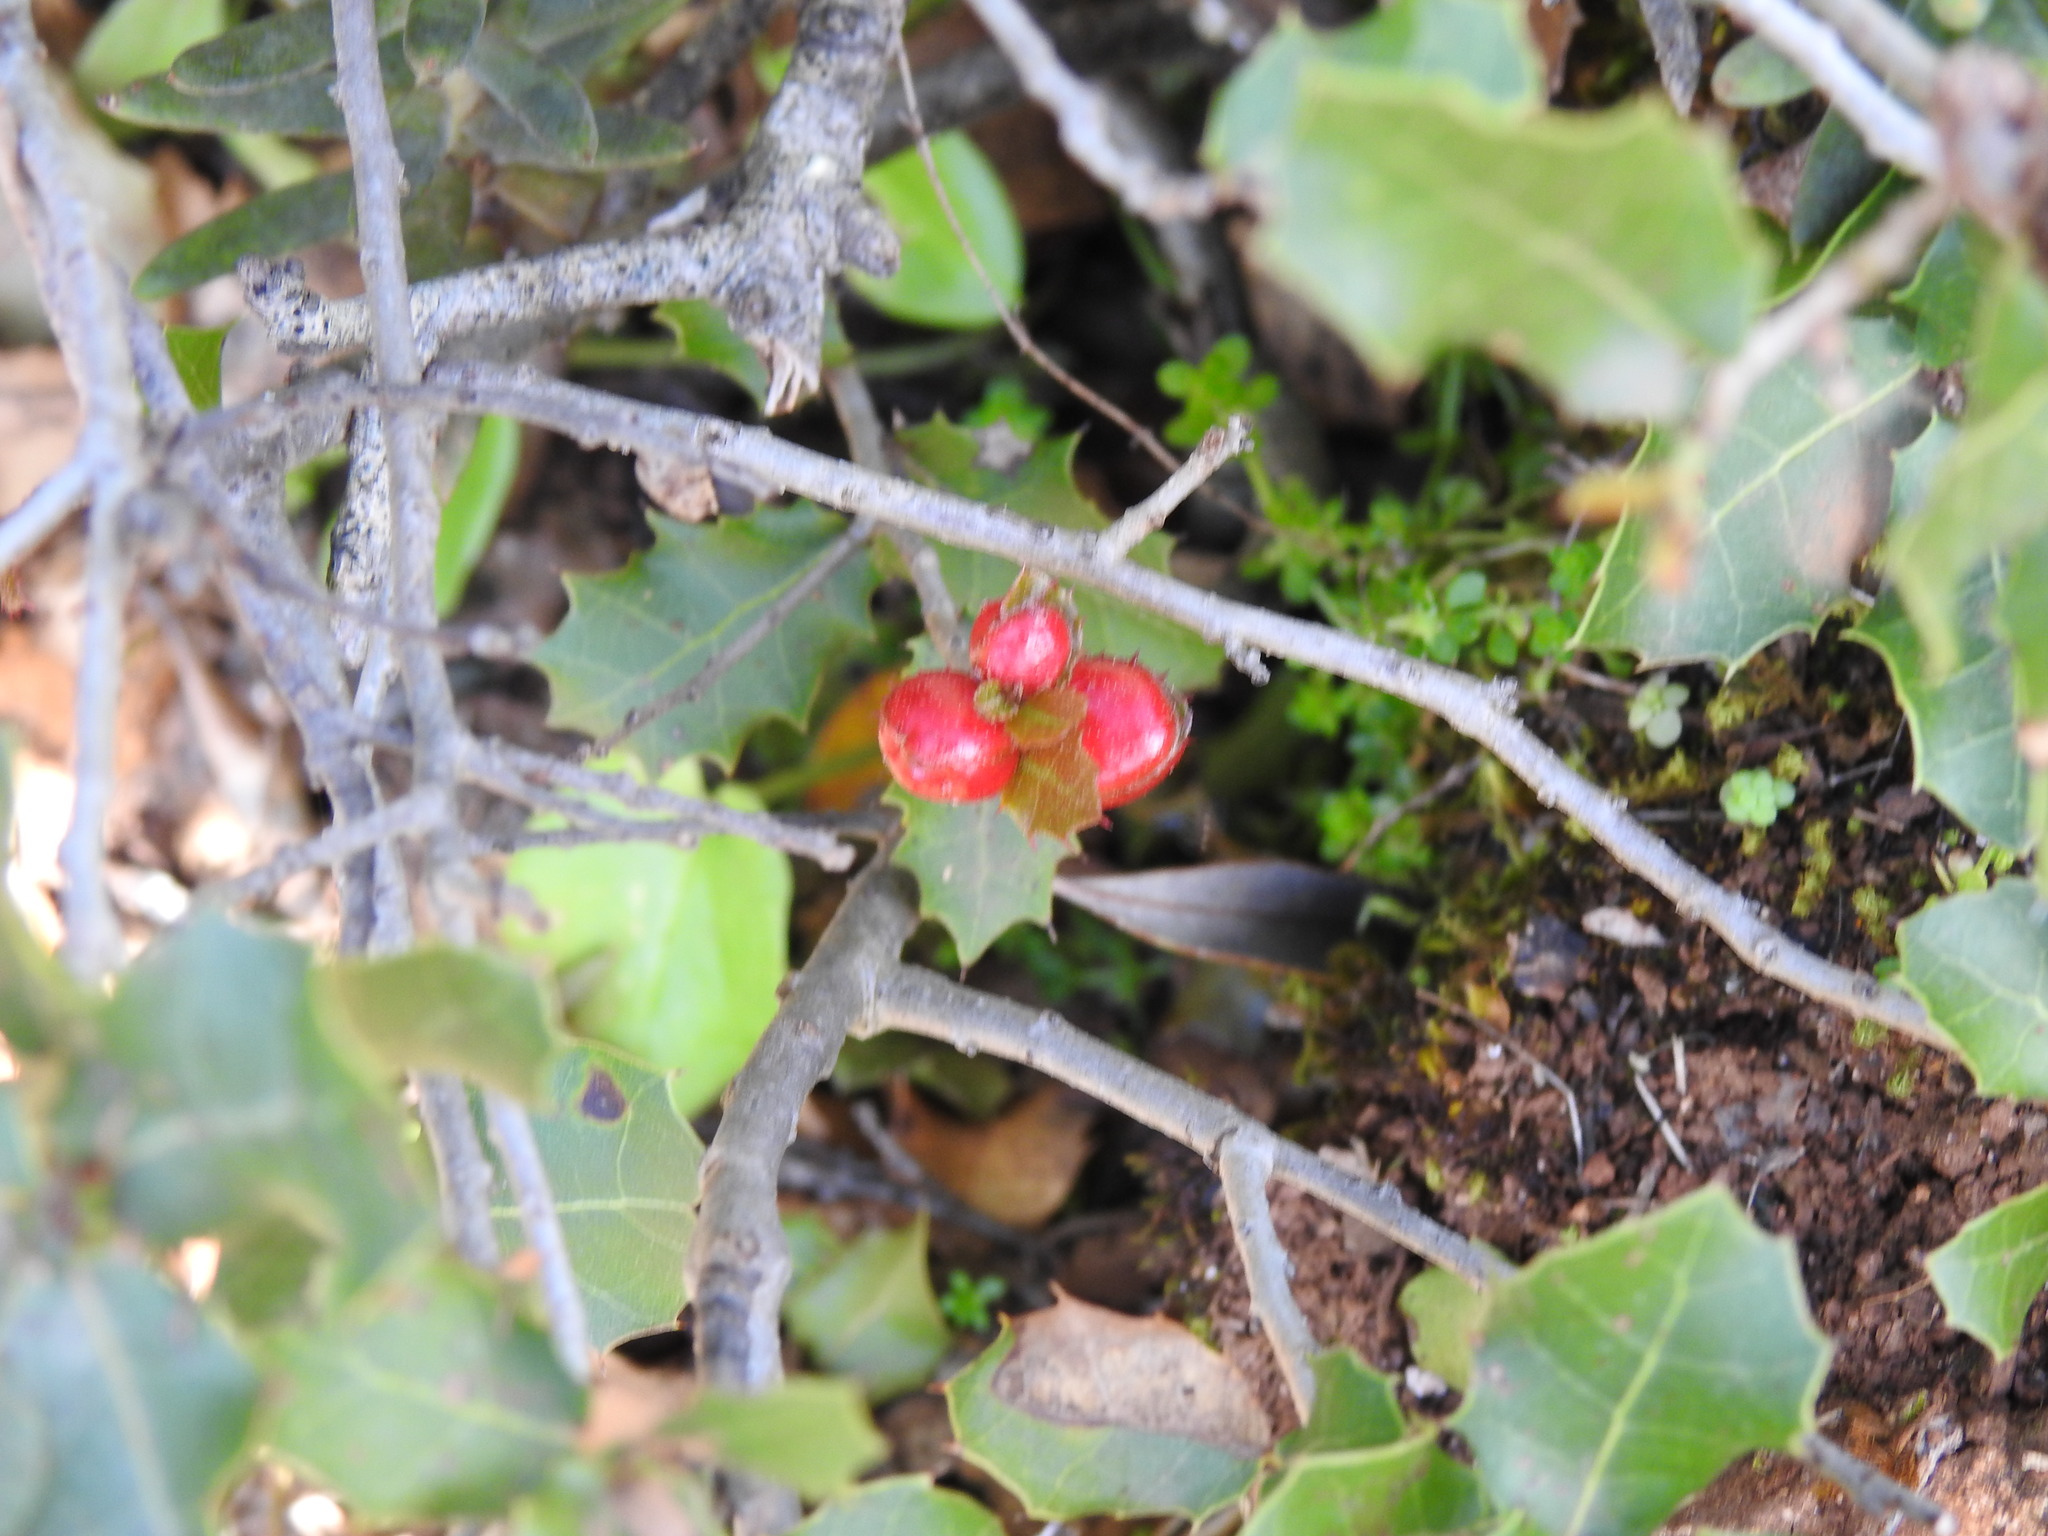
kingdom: Animalia
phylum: Arthropoda
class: Insecta
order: Hymenoptera
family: Cynipidae
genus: Plagiotrochus
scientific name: Plagiotrochus quercusilicis
